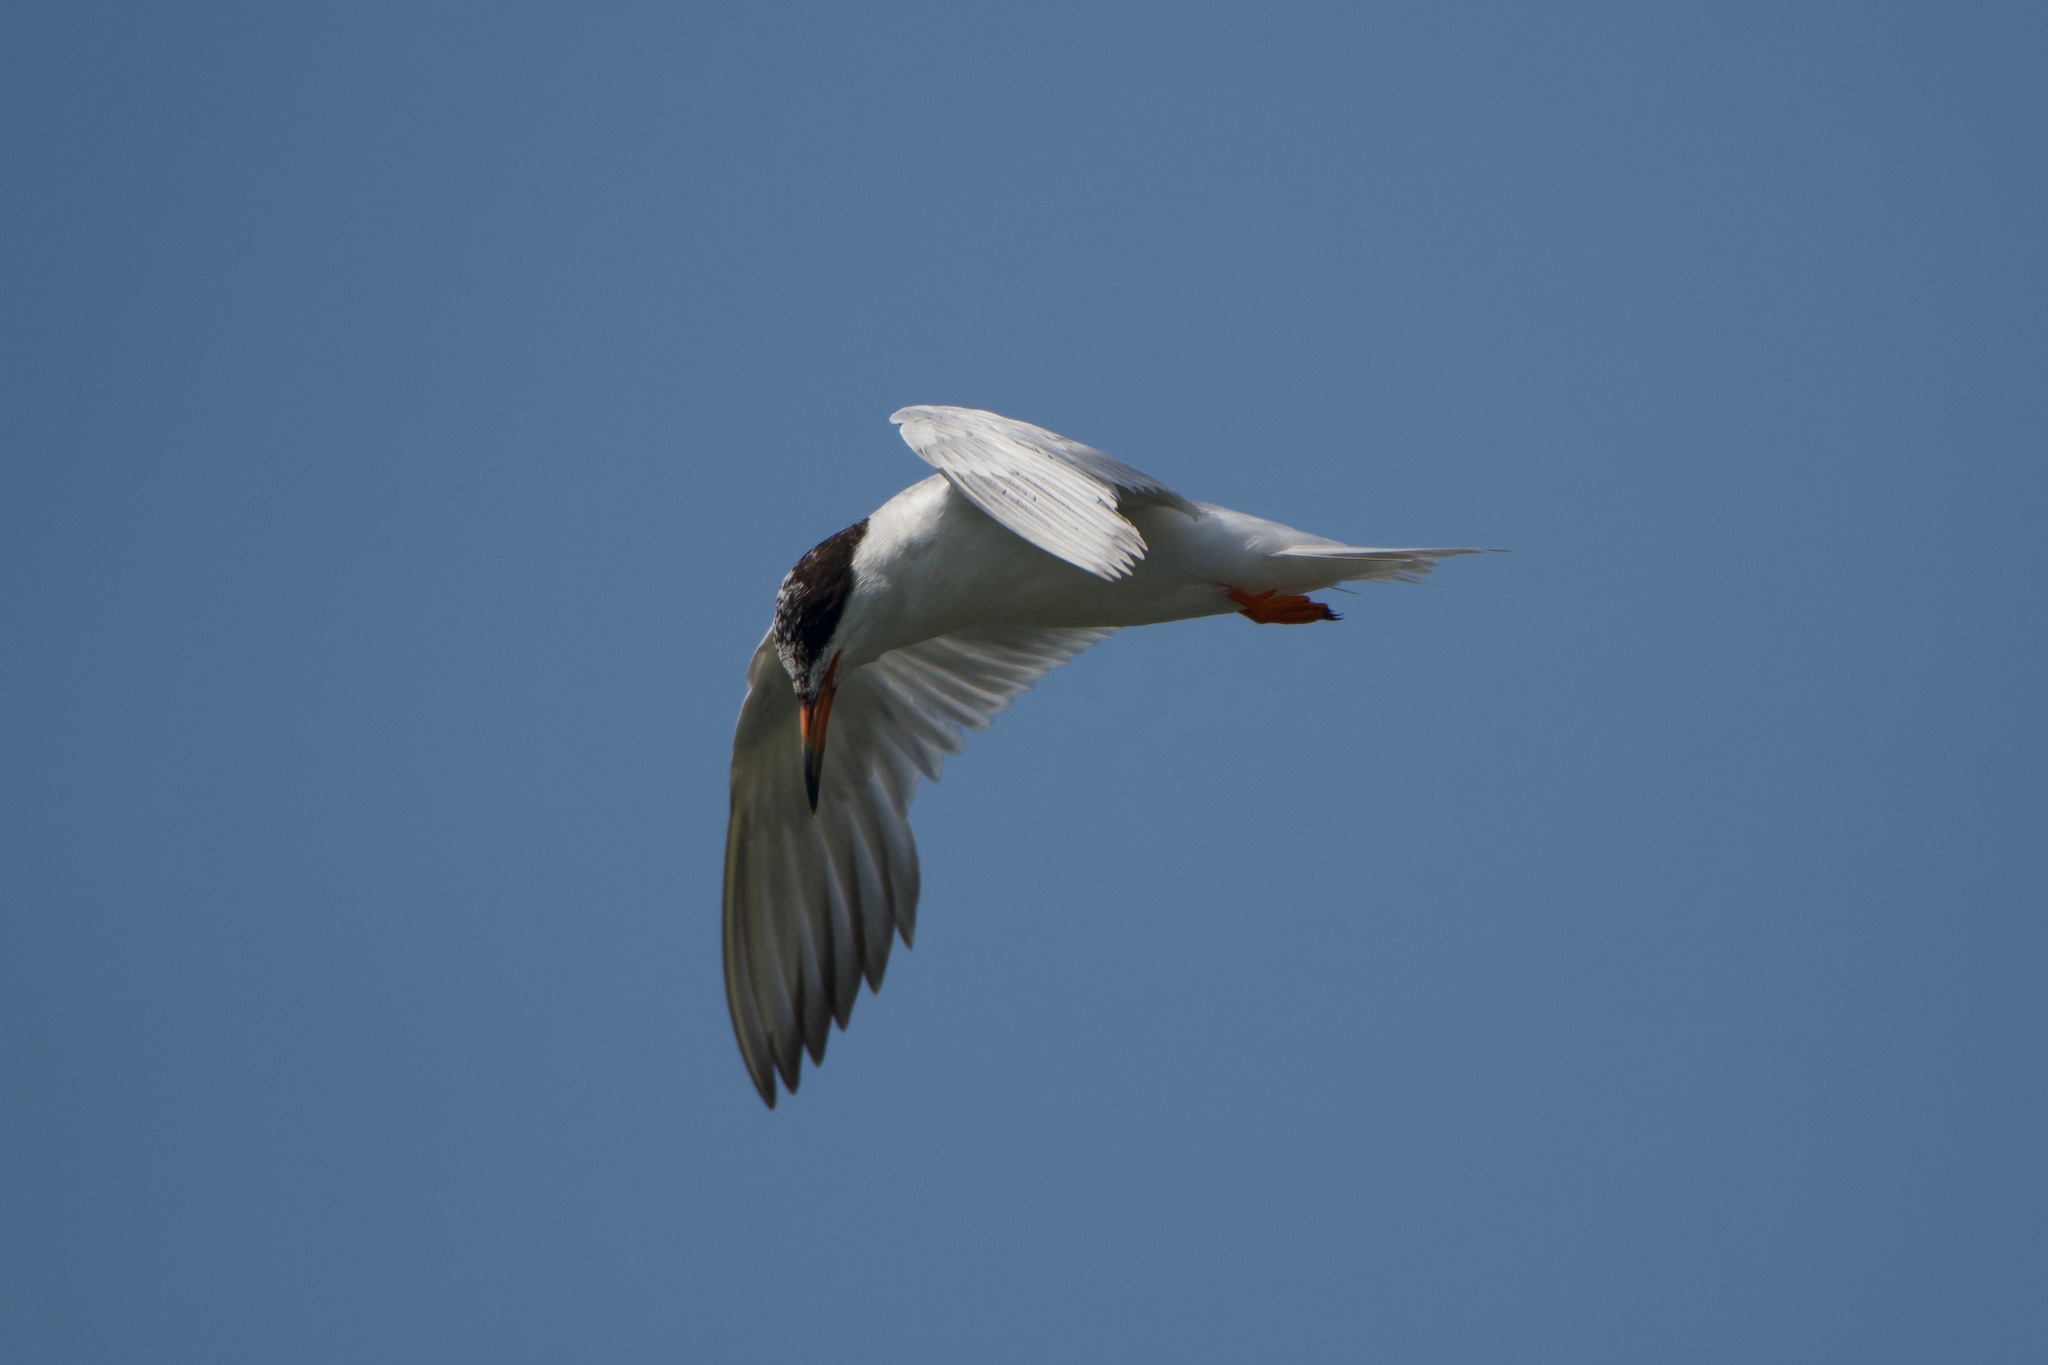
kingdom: Animalia
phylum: Chordata
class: Aves
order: Charadriiformes
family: Laridae
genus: Sterna
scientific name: Sterna forsteri
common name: Forster's tern
